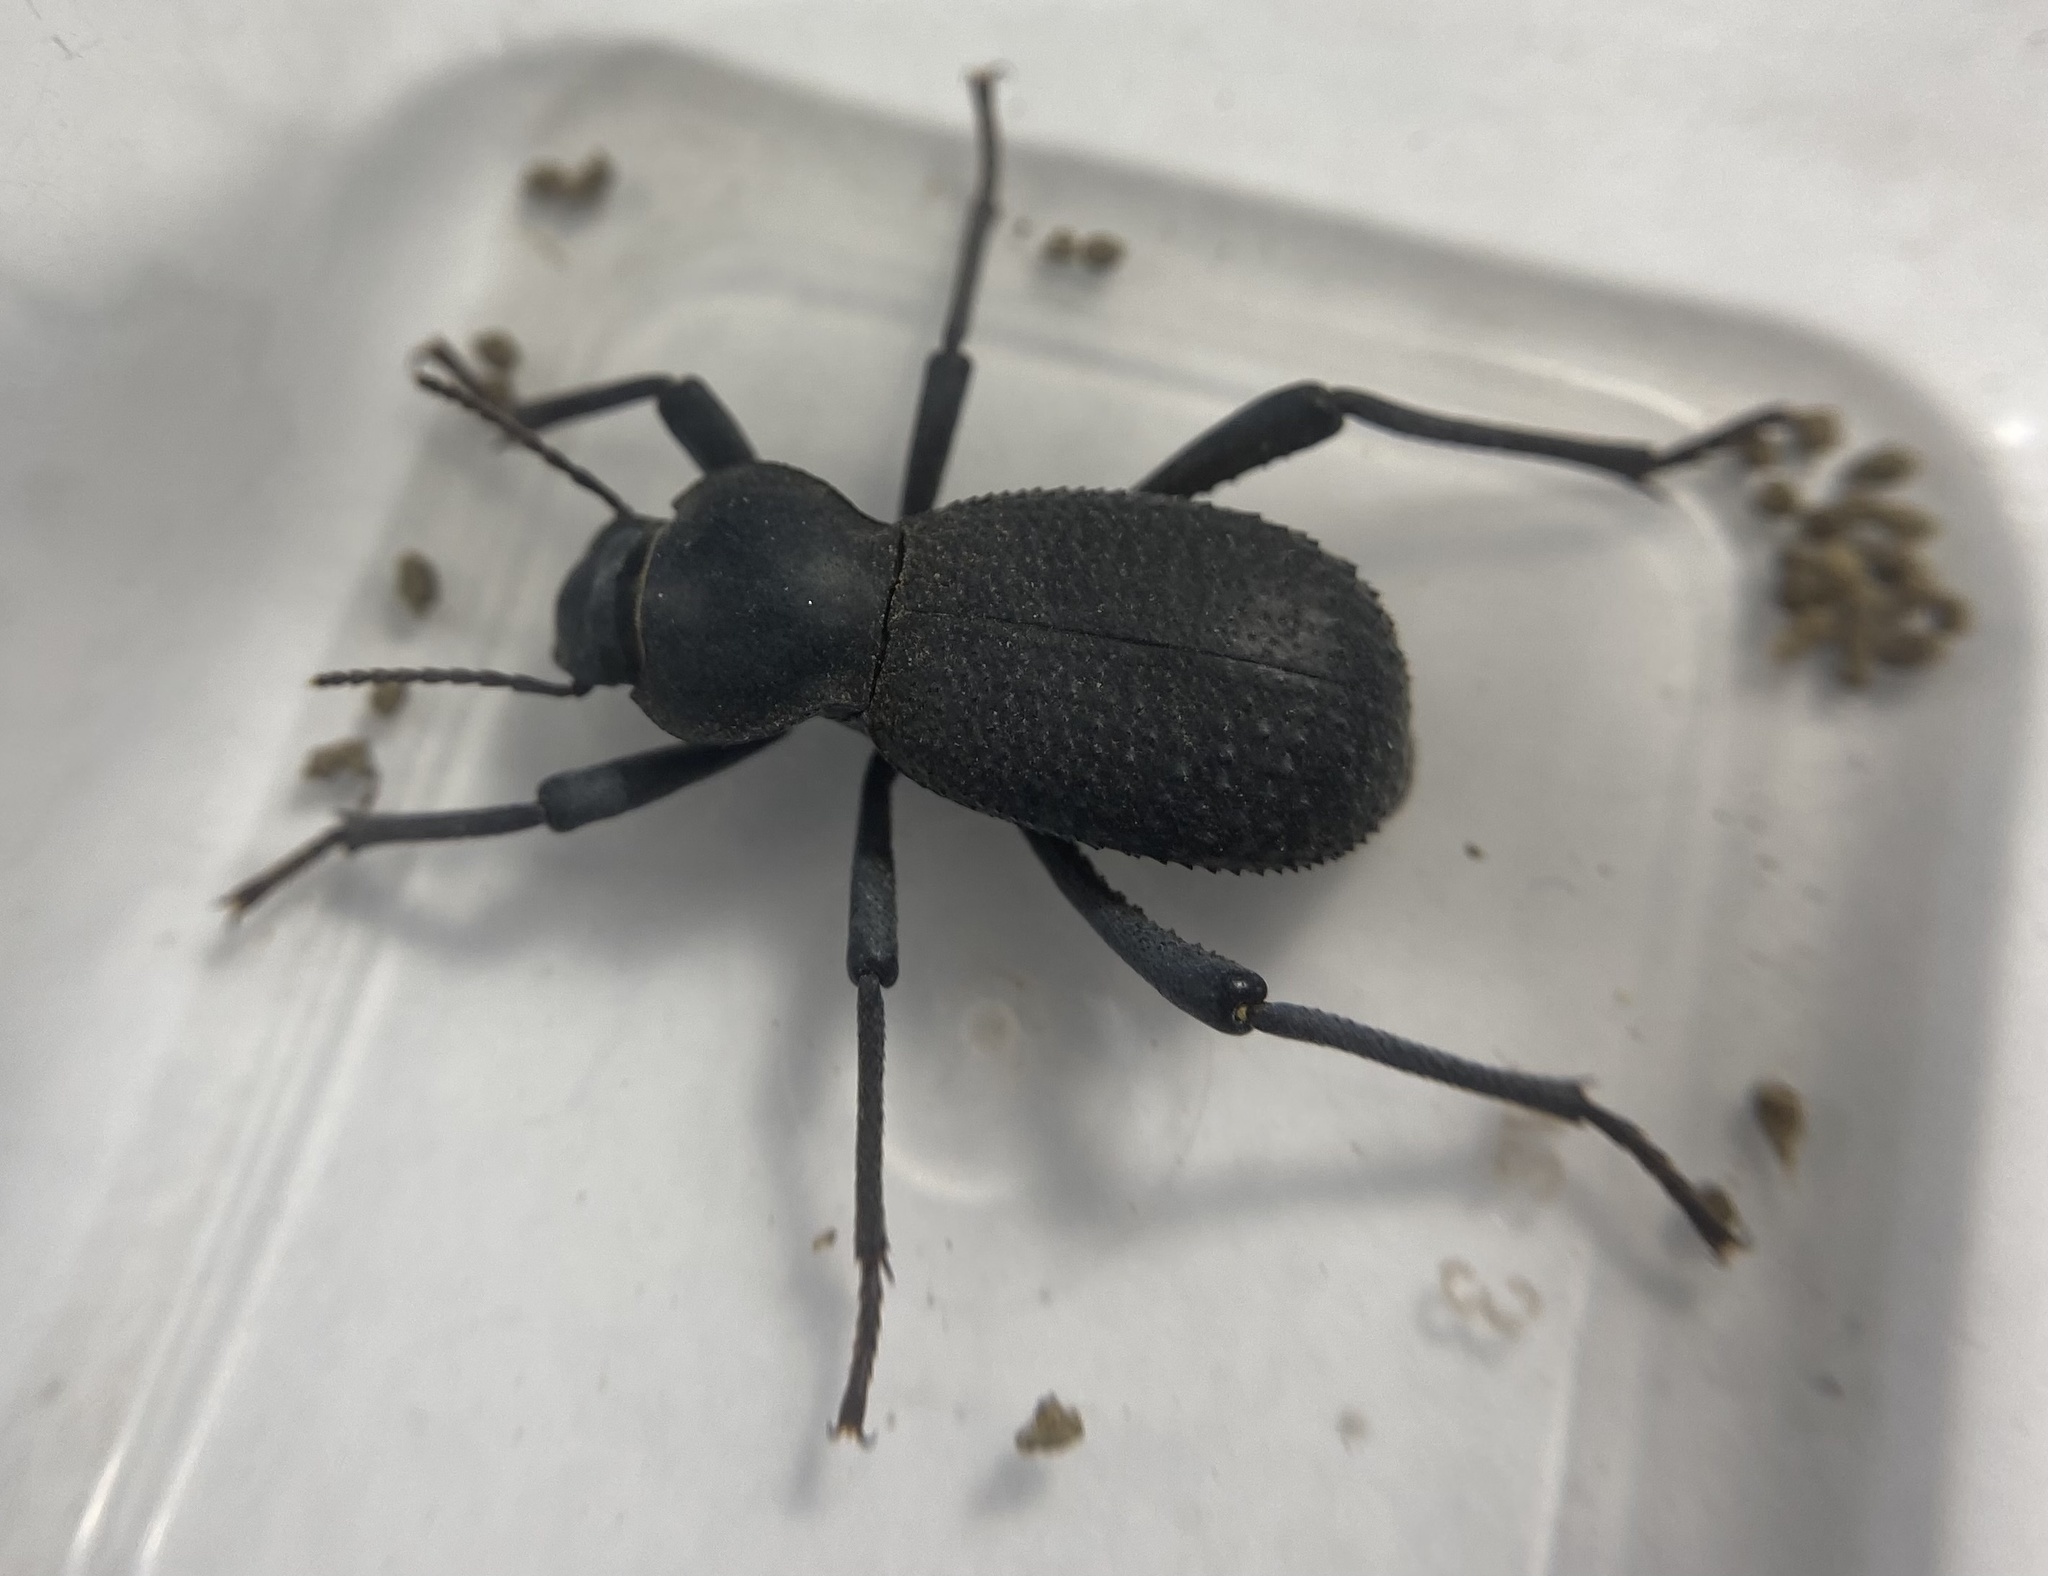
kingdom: Animalia
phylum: Arthropoda
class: Insecta
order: Coleoptera
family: Tenebrionidae
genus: Cryptoglossa
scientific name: Cryptoglossa muricata
